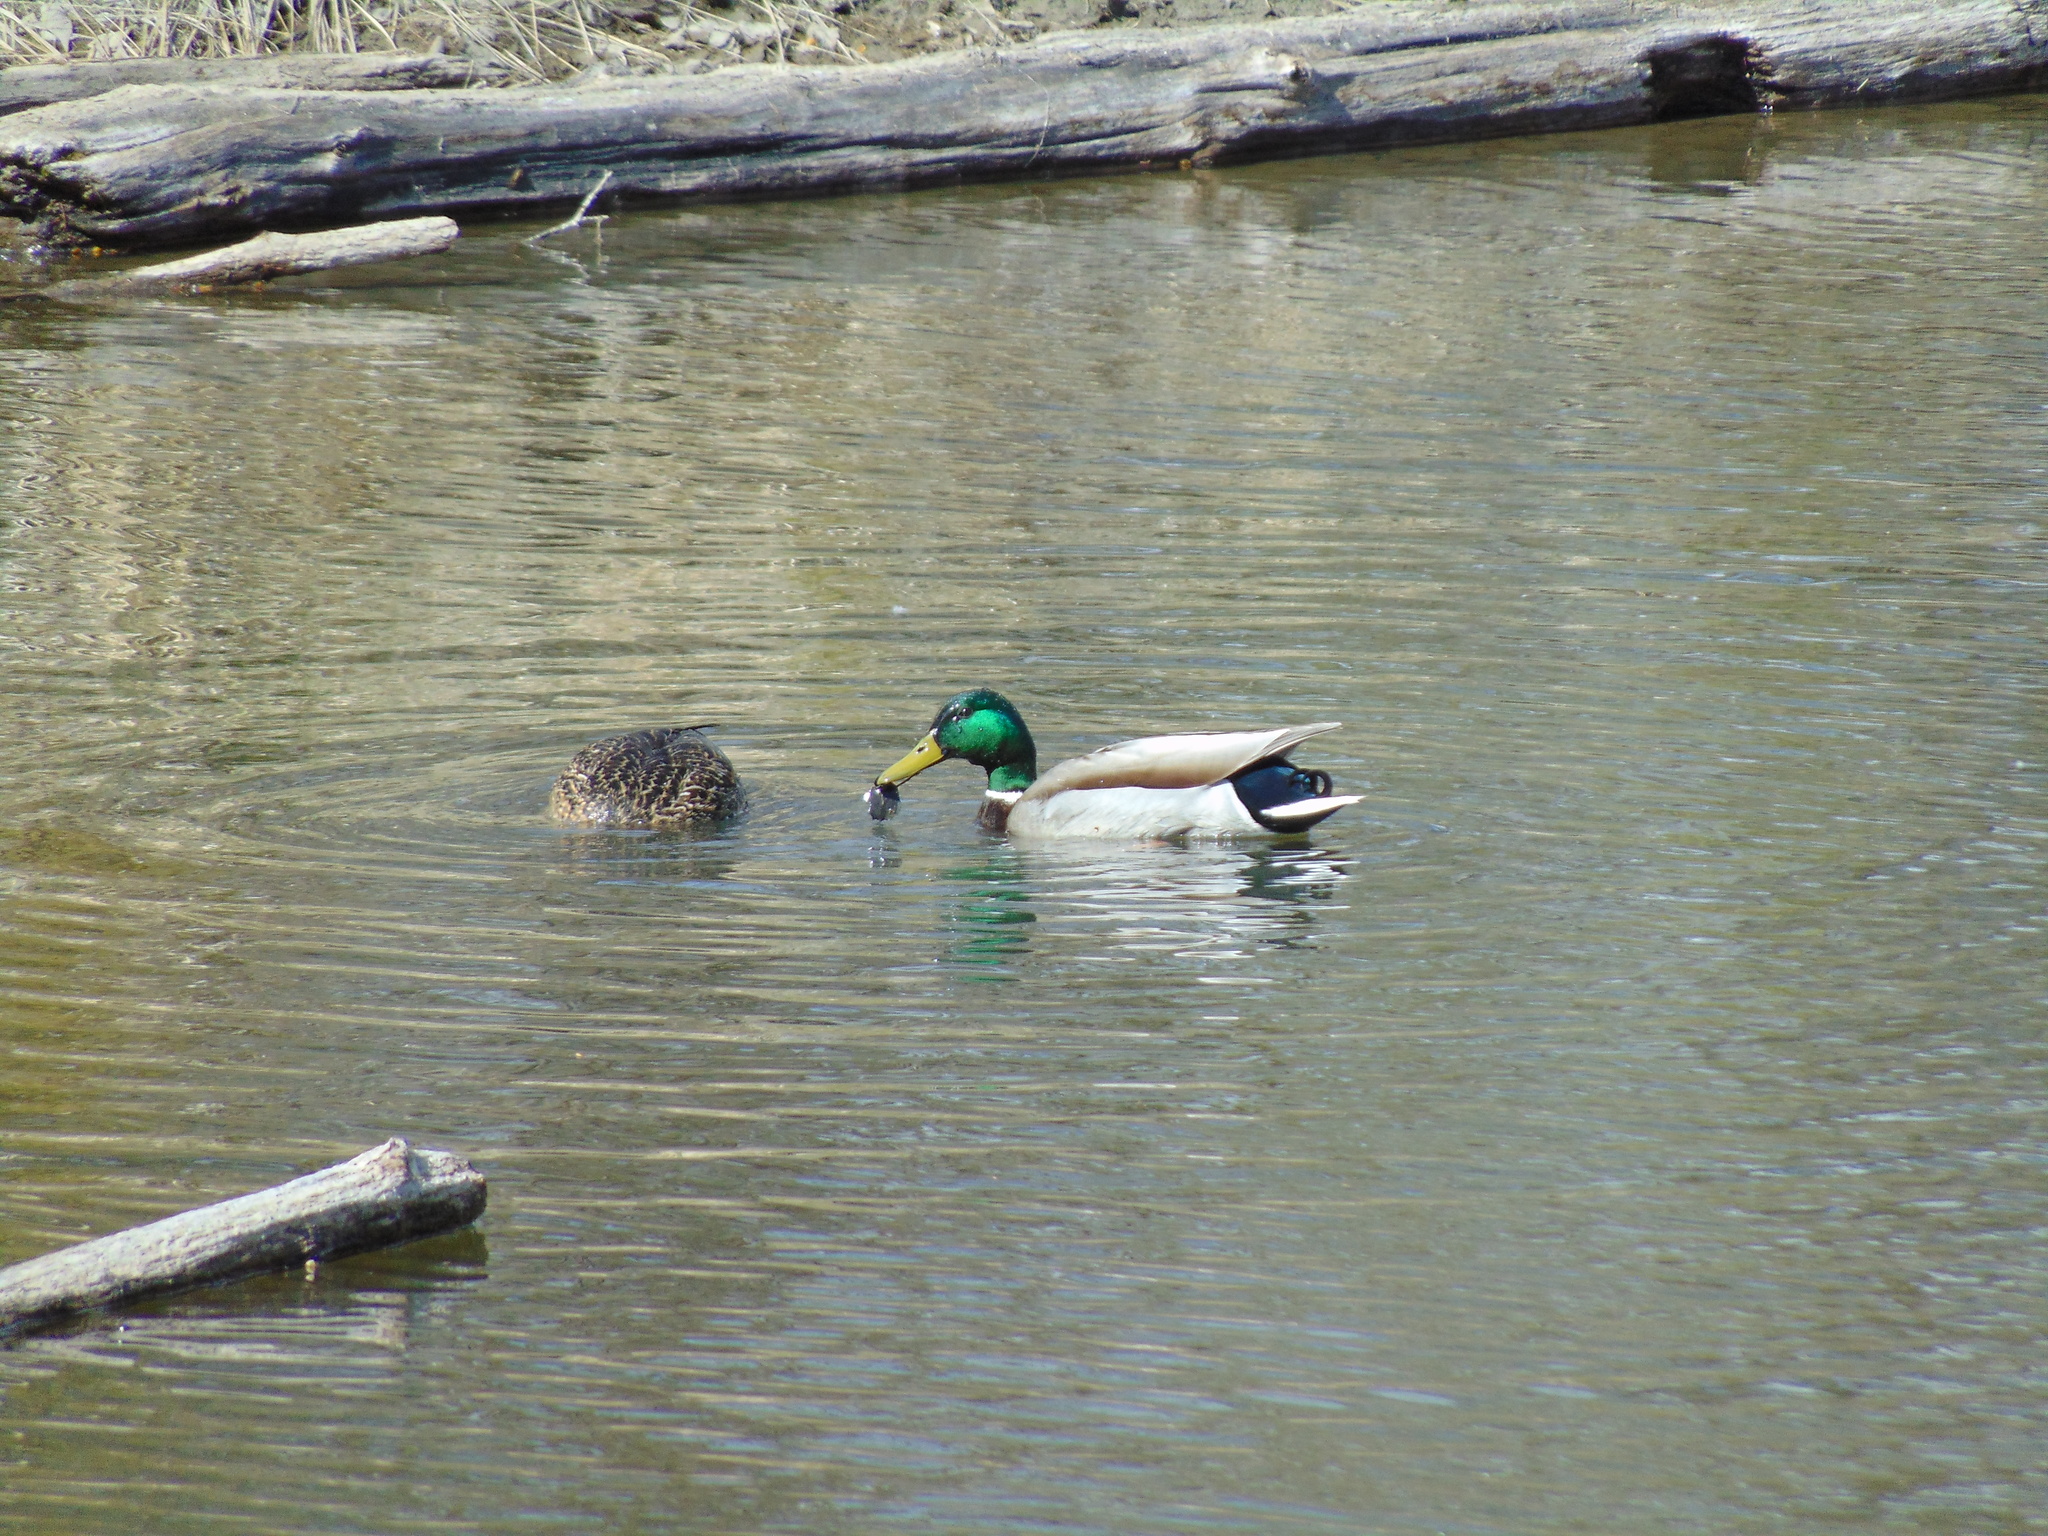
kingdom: Animalia
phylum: Chordata
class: Aves
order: Anseriformes
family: Anatidae
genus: Anas
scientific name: Anas platyrhynchos
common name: Mallard
